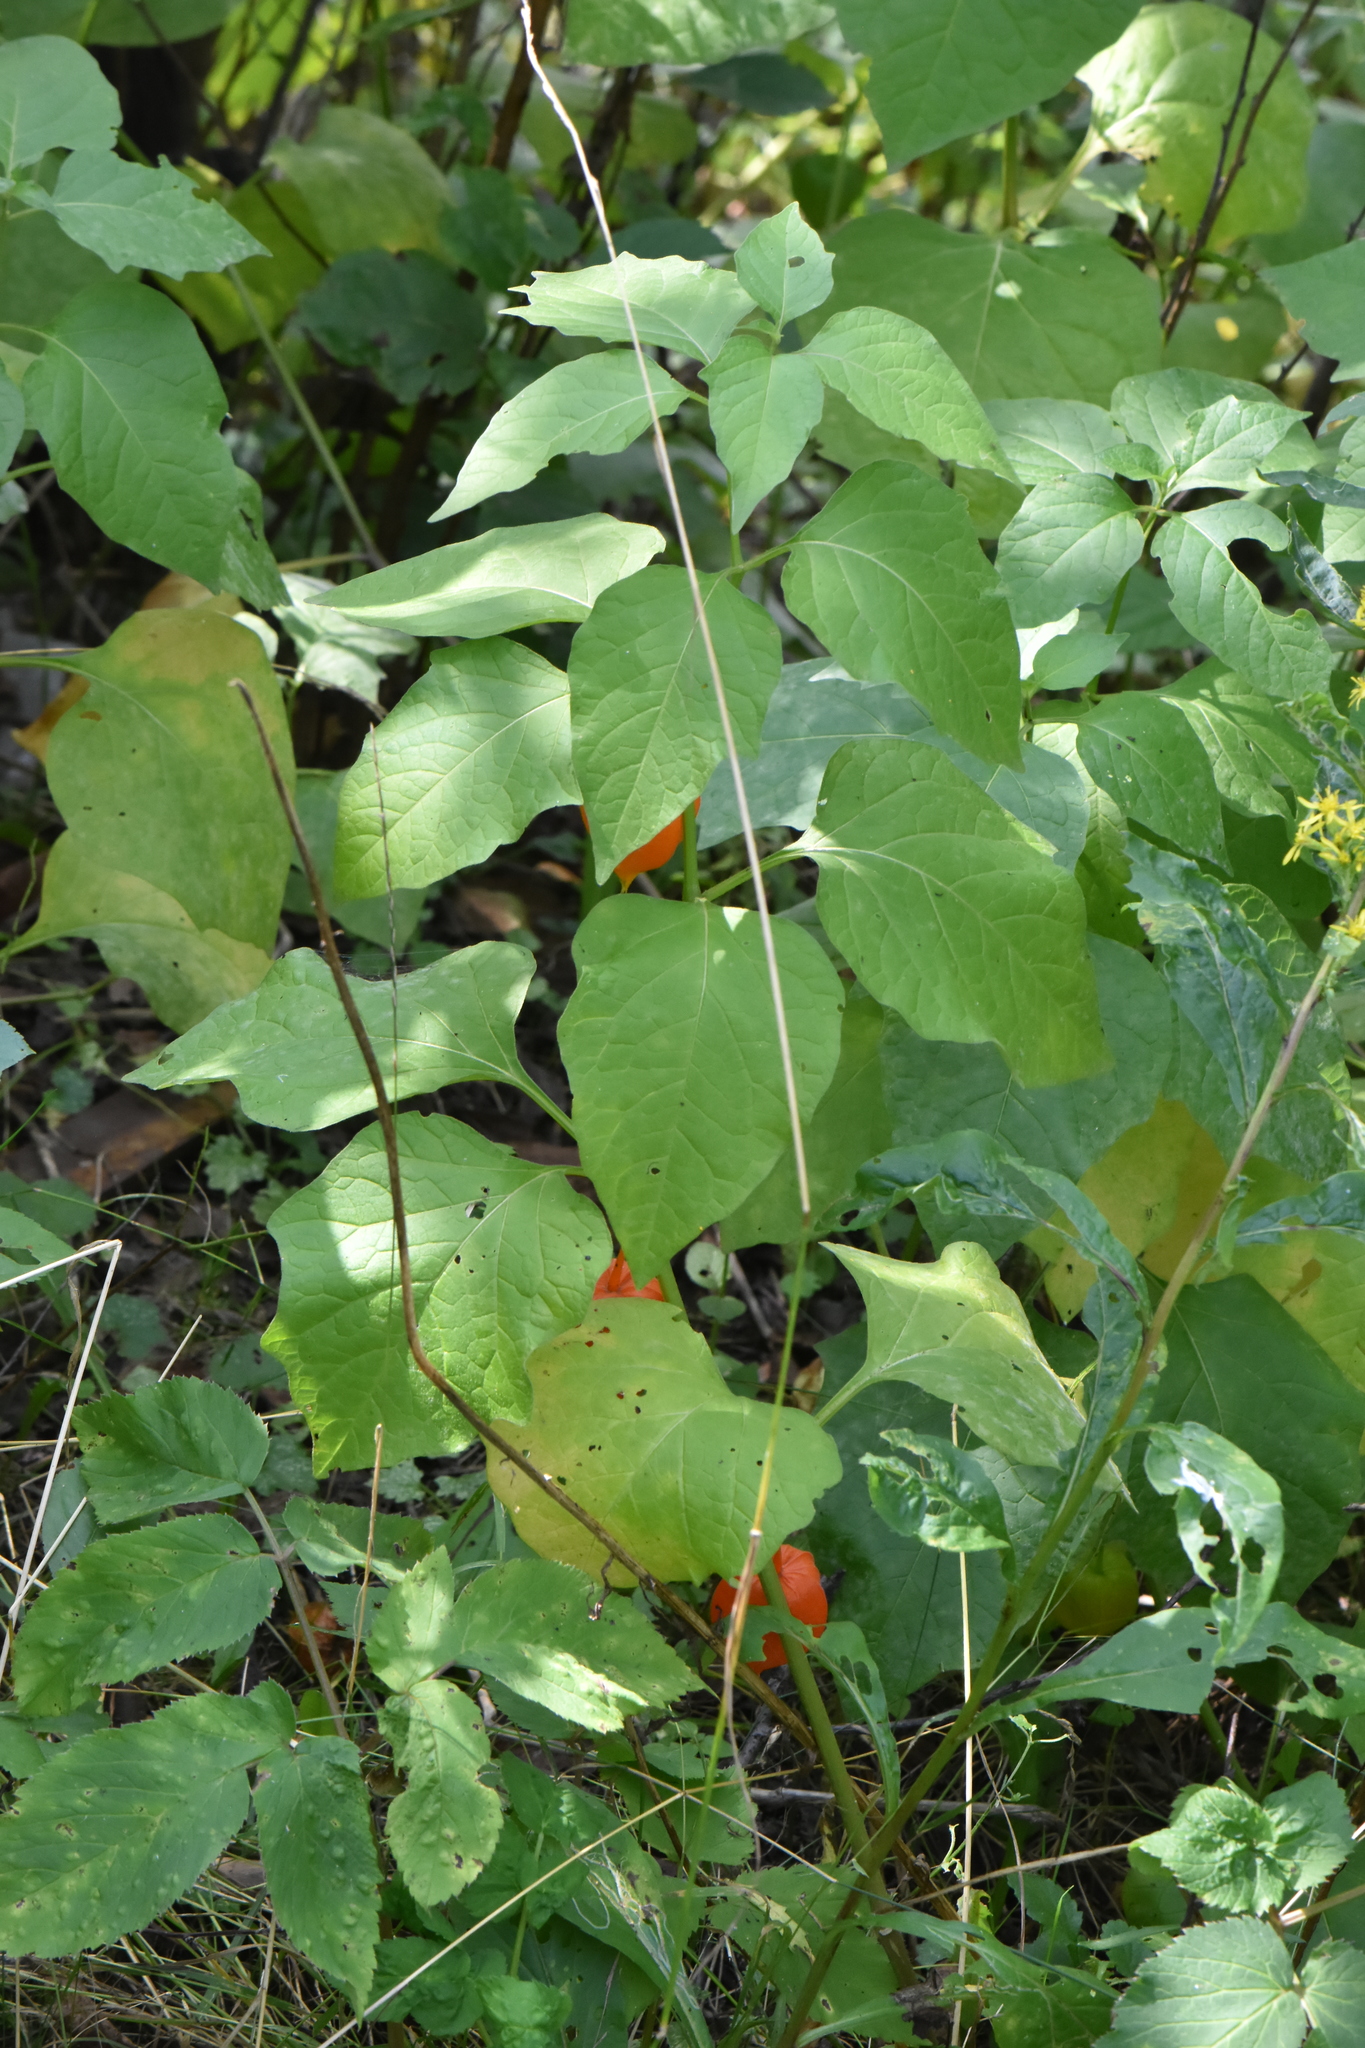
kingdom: Plantae
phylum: Tracheophyta
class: Magnoliopsida
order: Solanales
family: Solanaceae
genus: Alkekengi
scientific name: Alkekengi officinarum
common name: Japanese-lantern
